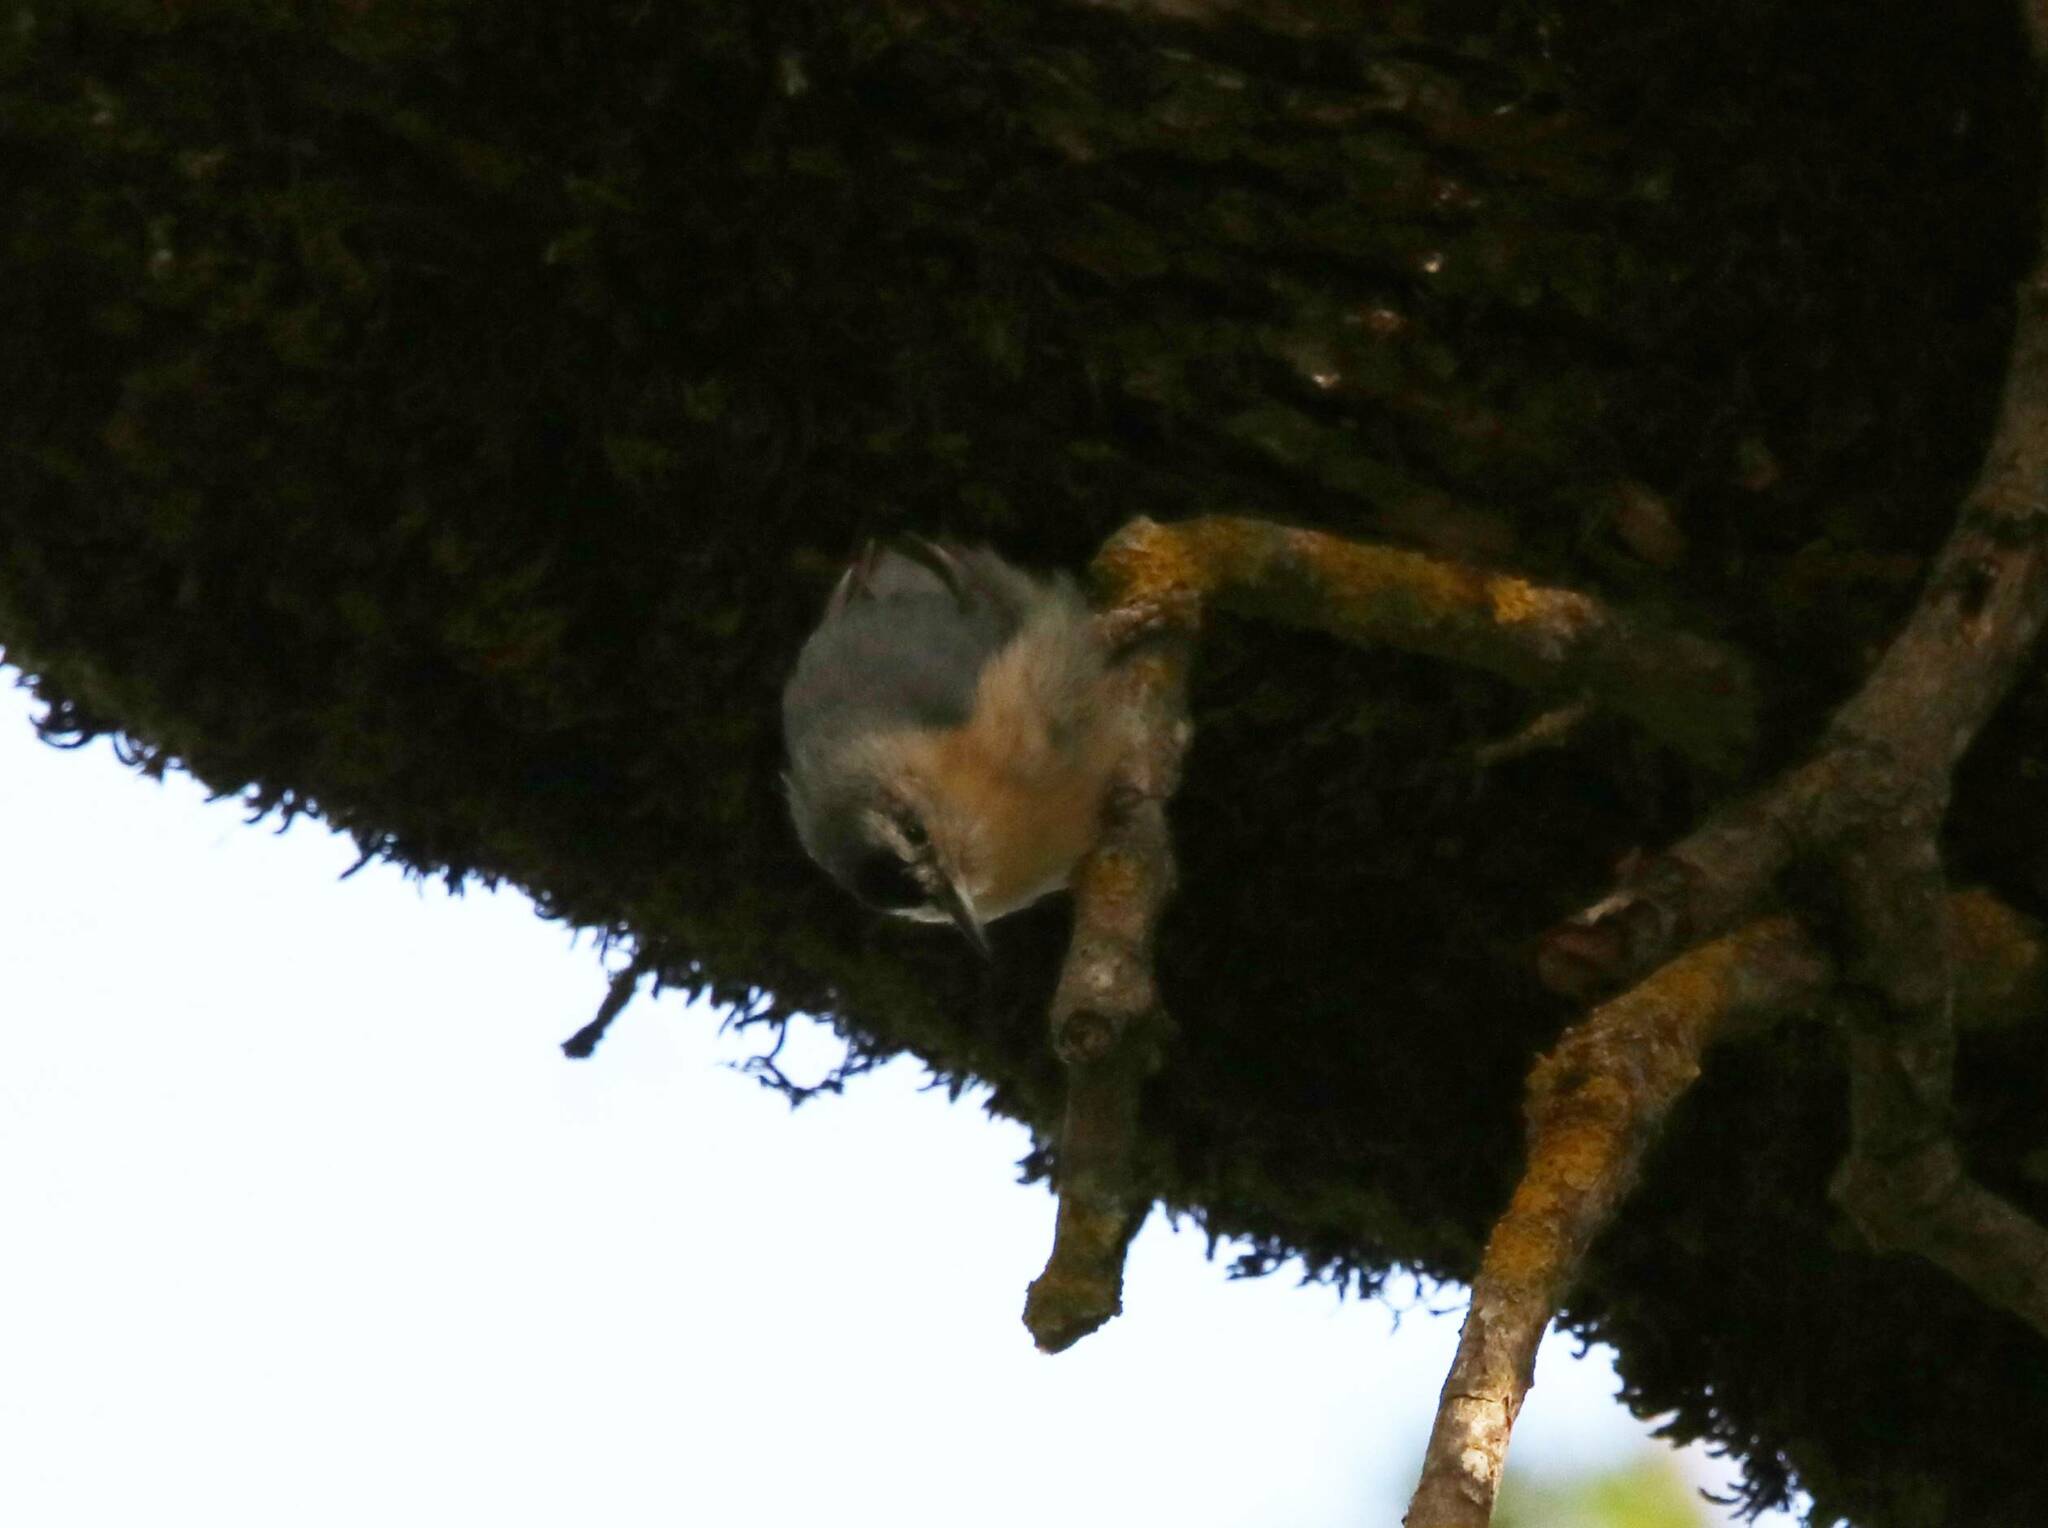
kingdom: Animalia
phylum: Chordata
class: Aves
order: Passeriformes
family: Sittidae
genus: Sitta
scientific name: Sitta ledanti
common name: Algerian nuthatch
